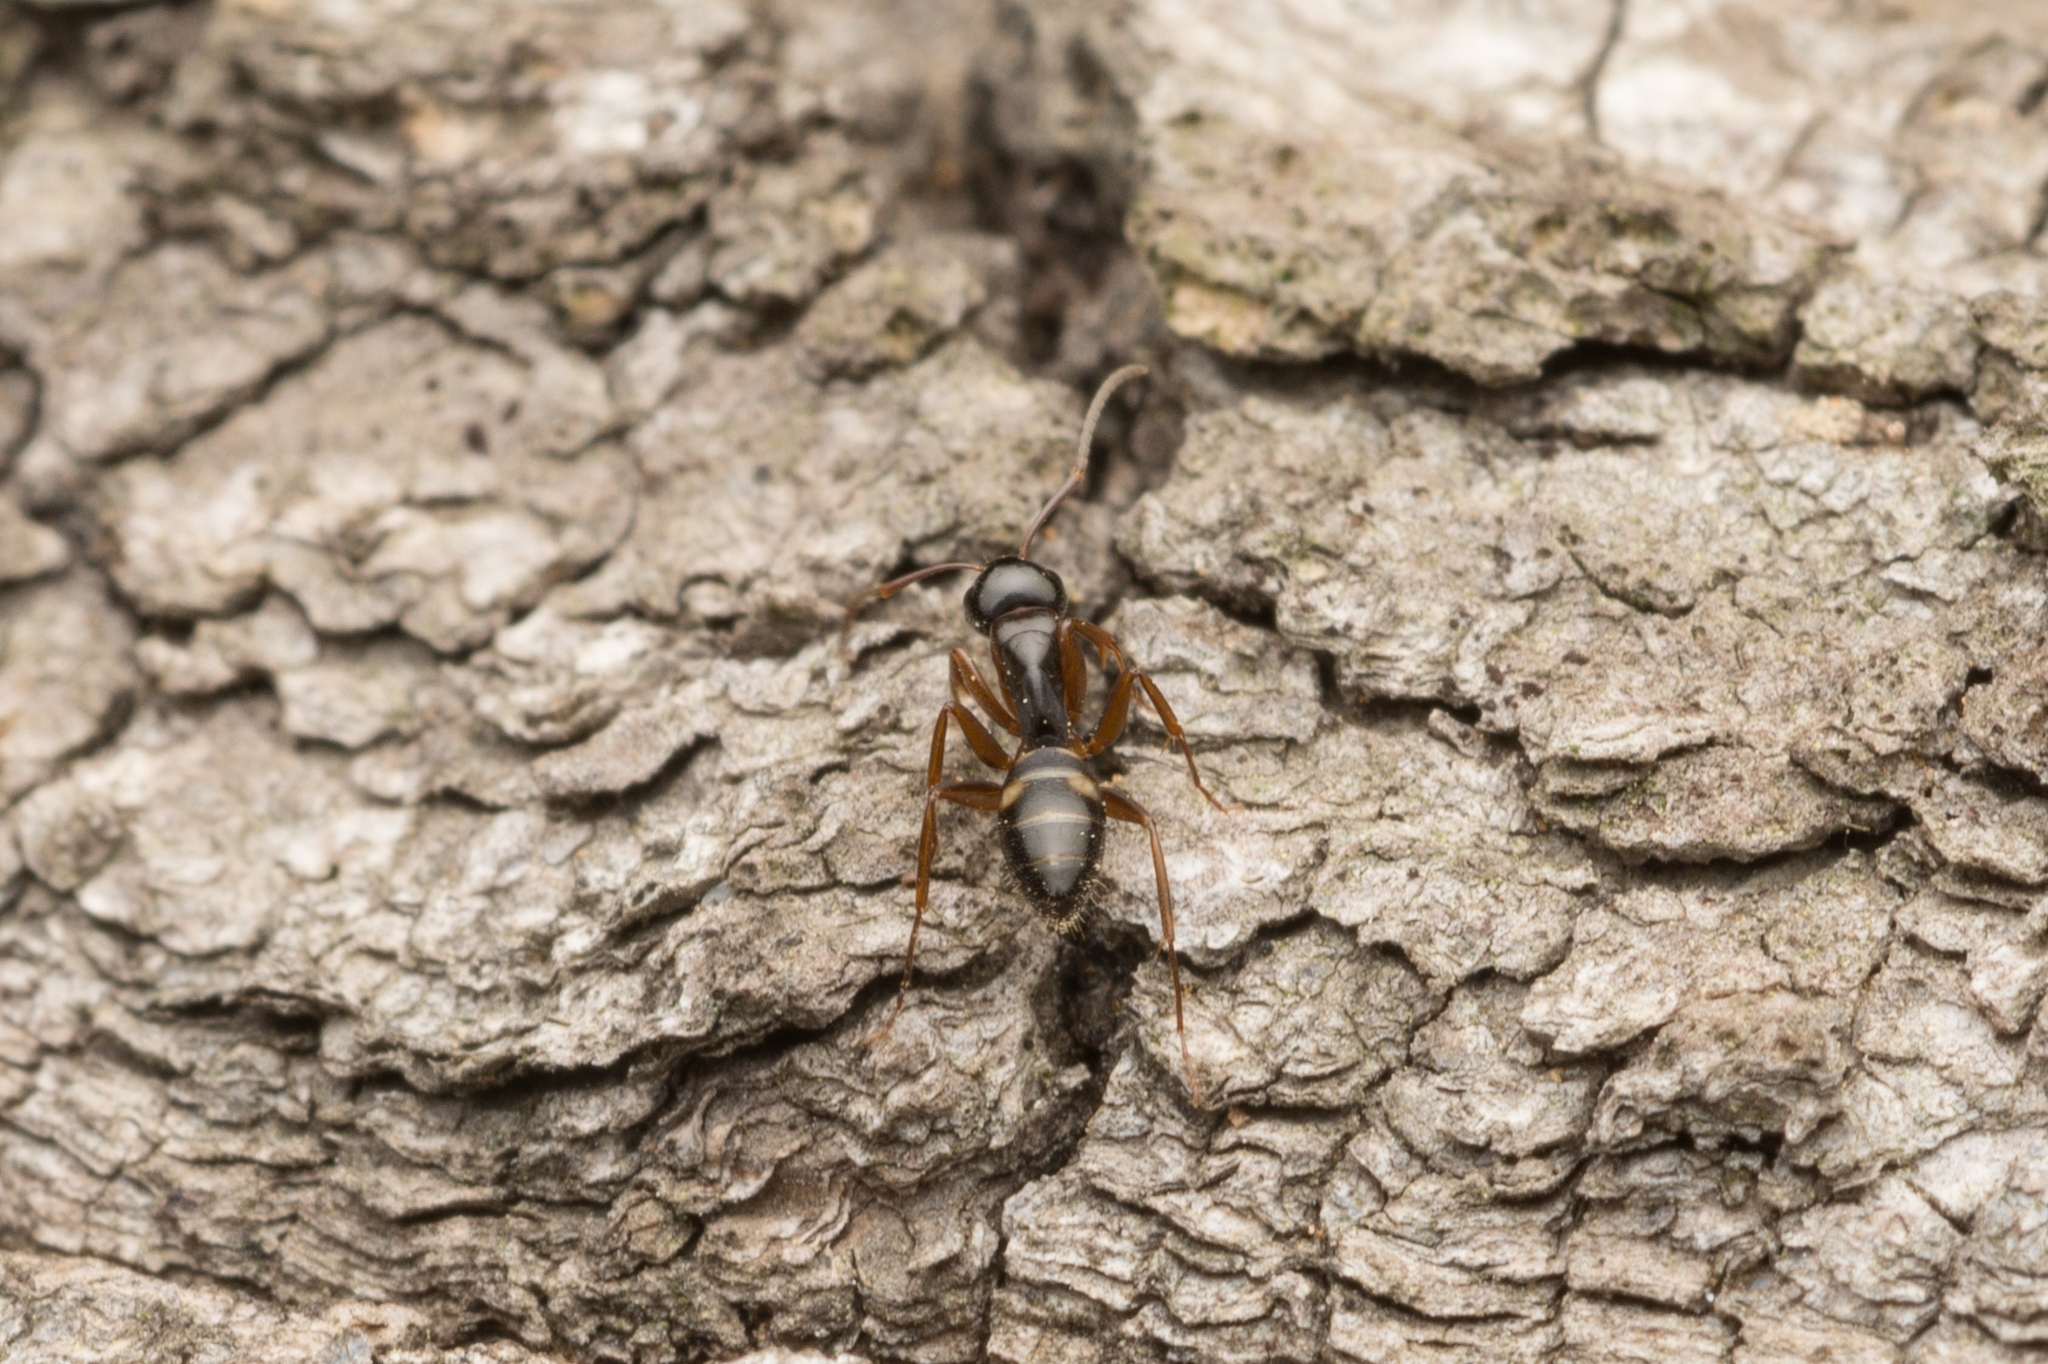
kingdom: Animalia
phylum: Arthropoda
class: Insecta
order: Hymenoptera
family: Formicidae
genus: Camponotus
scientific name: Camponotus quadrinotatus
